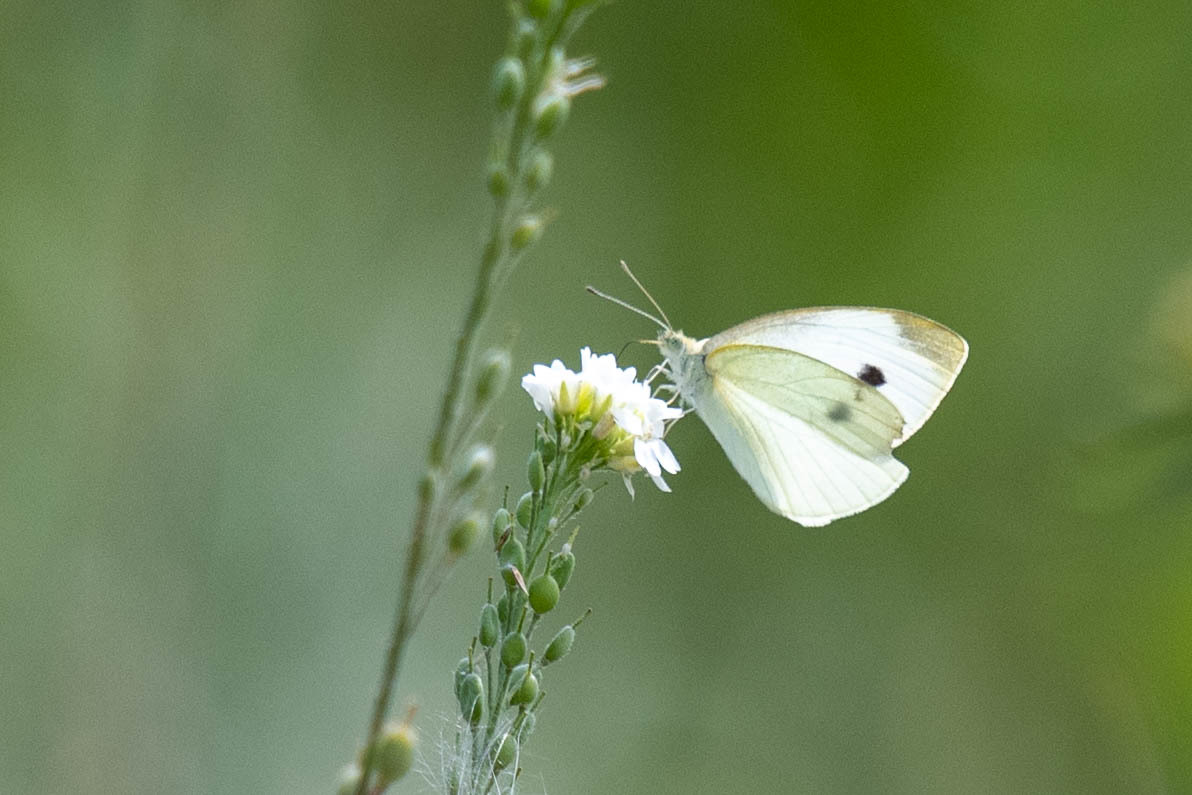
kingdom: Animalia
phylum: Arthropoda
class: Insecta
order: Lepidoptera
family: Pieridae
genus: Pieris
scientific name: Pieris rapae
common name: Small white
